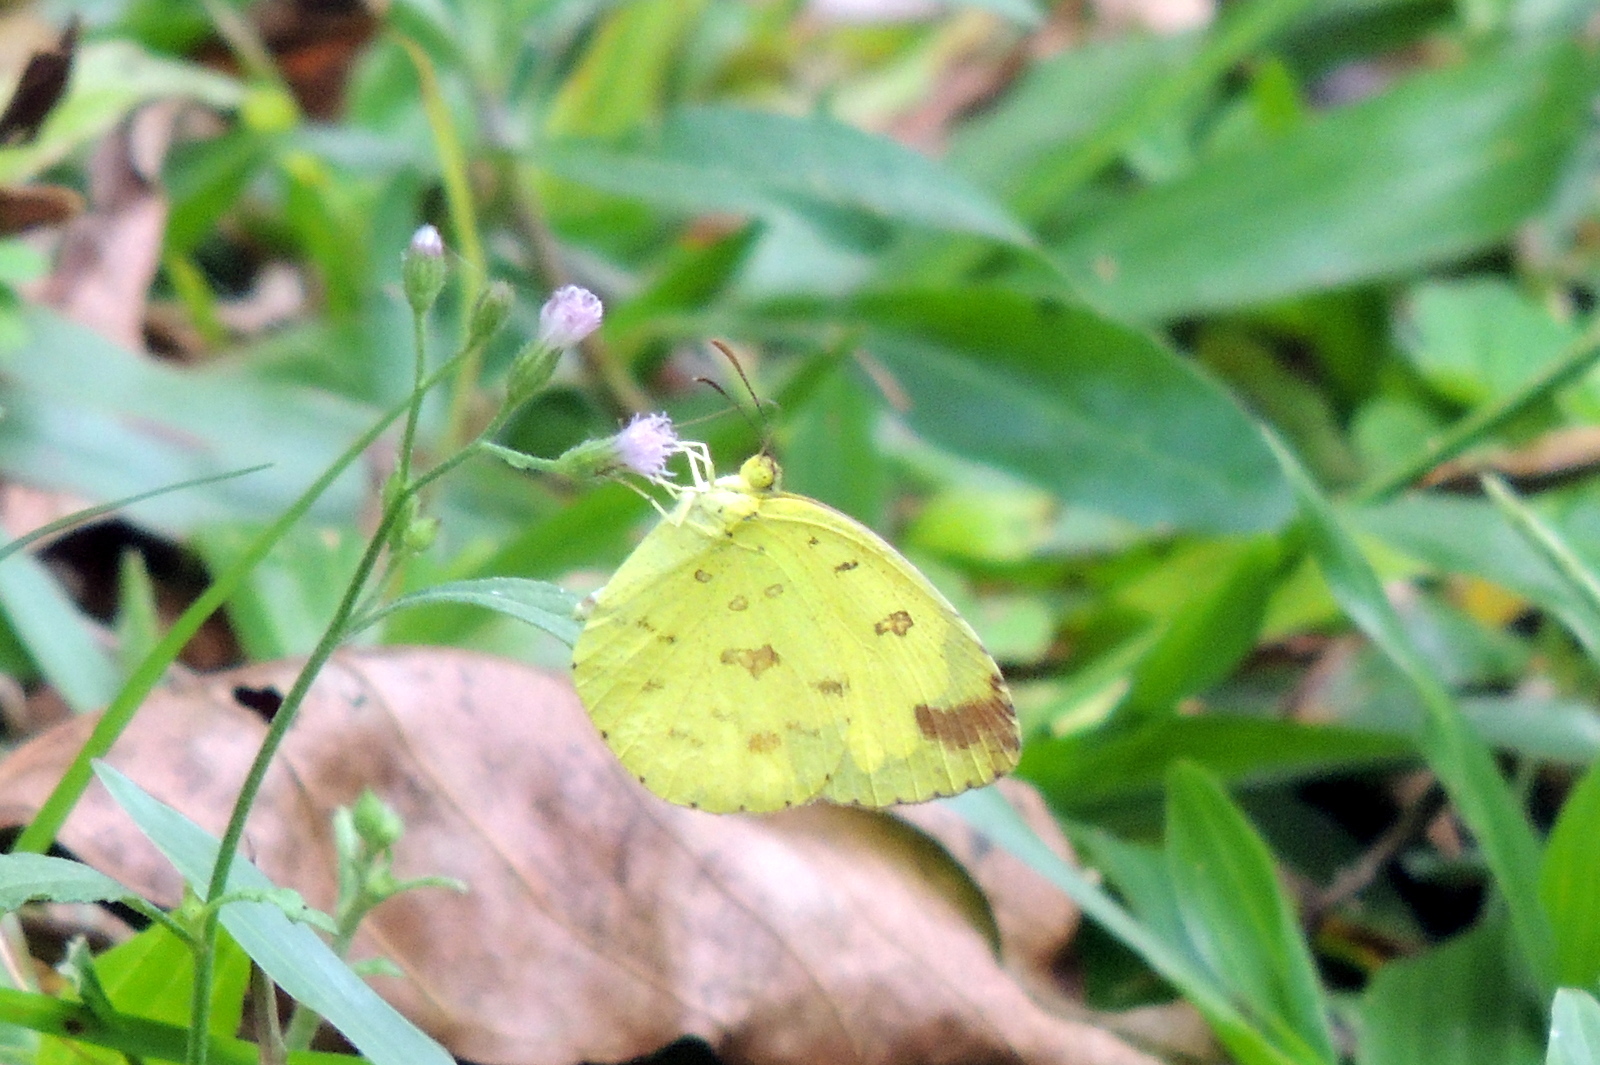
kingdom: Plantae
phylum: Tracheophyta
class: Magnoliopsida
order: Asterales
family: Asteraceae
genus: Cyanthillium
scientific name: Cyanthillium cinereum
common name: Little ironweed
